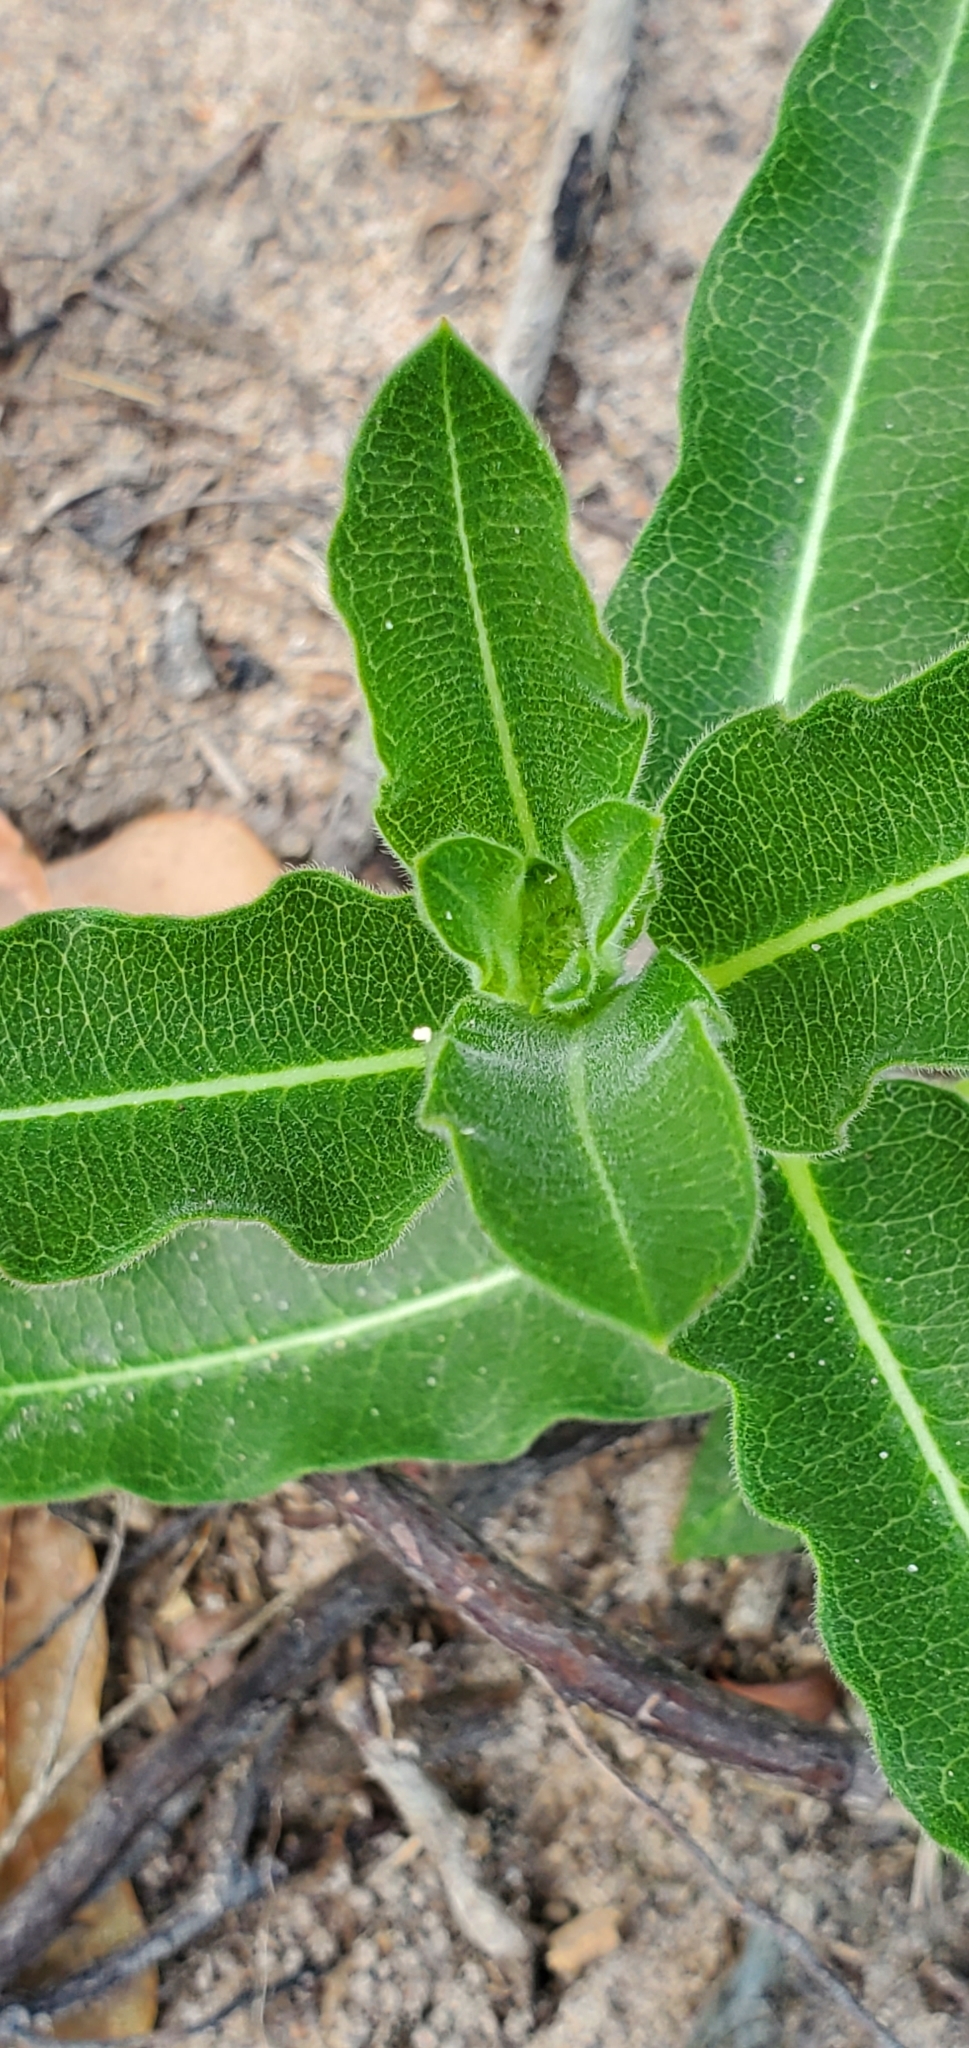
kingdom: Plantae
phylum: Tracheophyta
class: Magnoliopsida
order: Gentianales
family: Apocynaceae
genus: Asclepias
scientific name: Asclepias obovata
